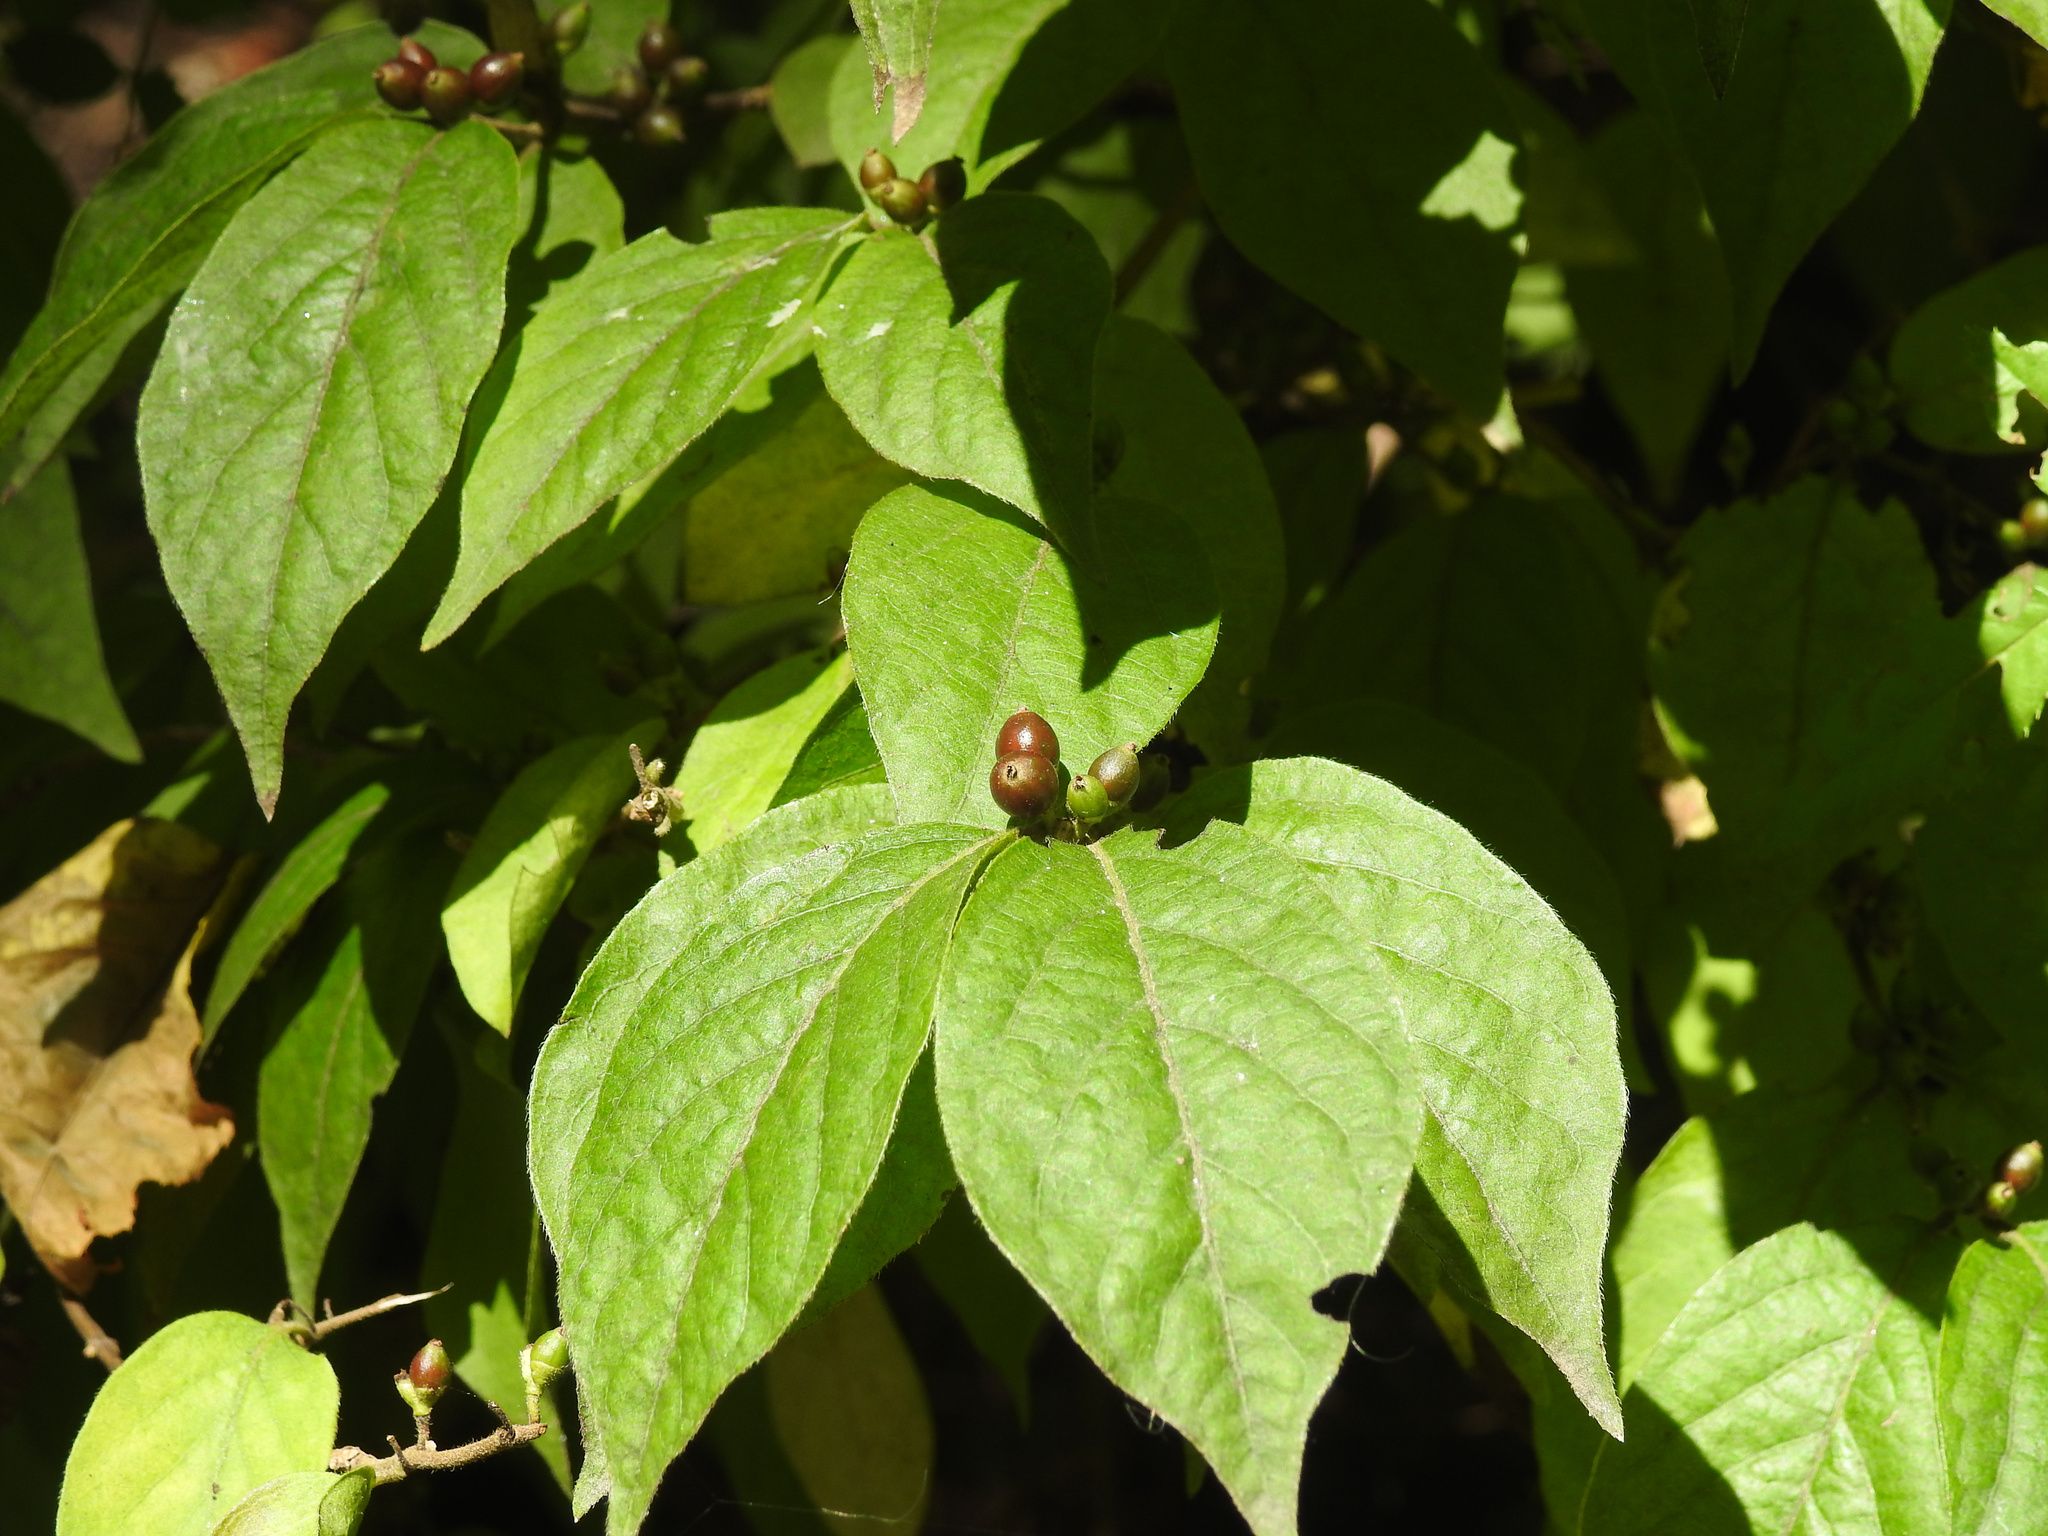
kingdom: Plantae
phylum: Tracheophyta
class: Magnoliopsida
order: Dipsacales
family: Caprifoliaceae
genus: Lonicera
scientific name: Lonicera maackii
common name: Amur honeysuckle
